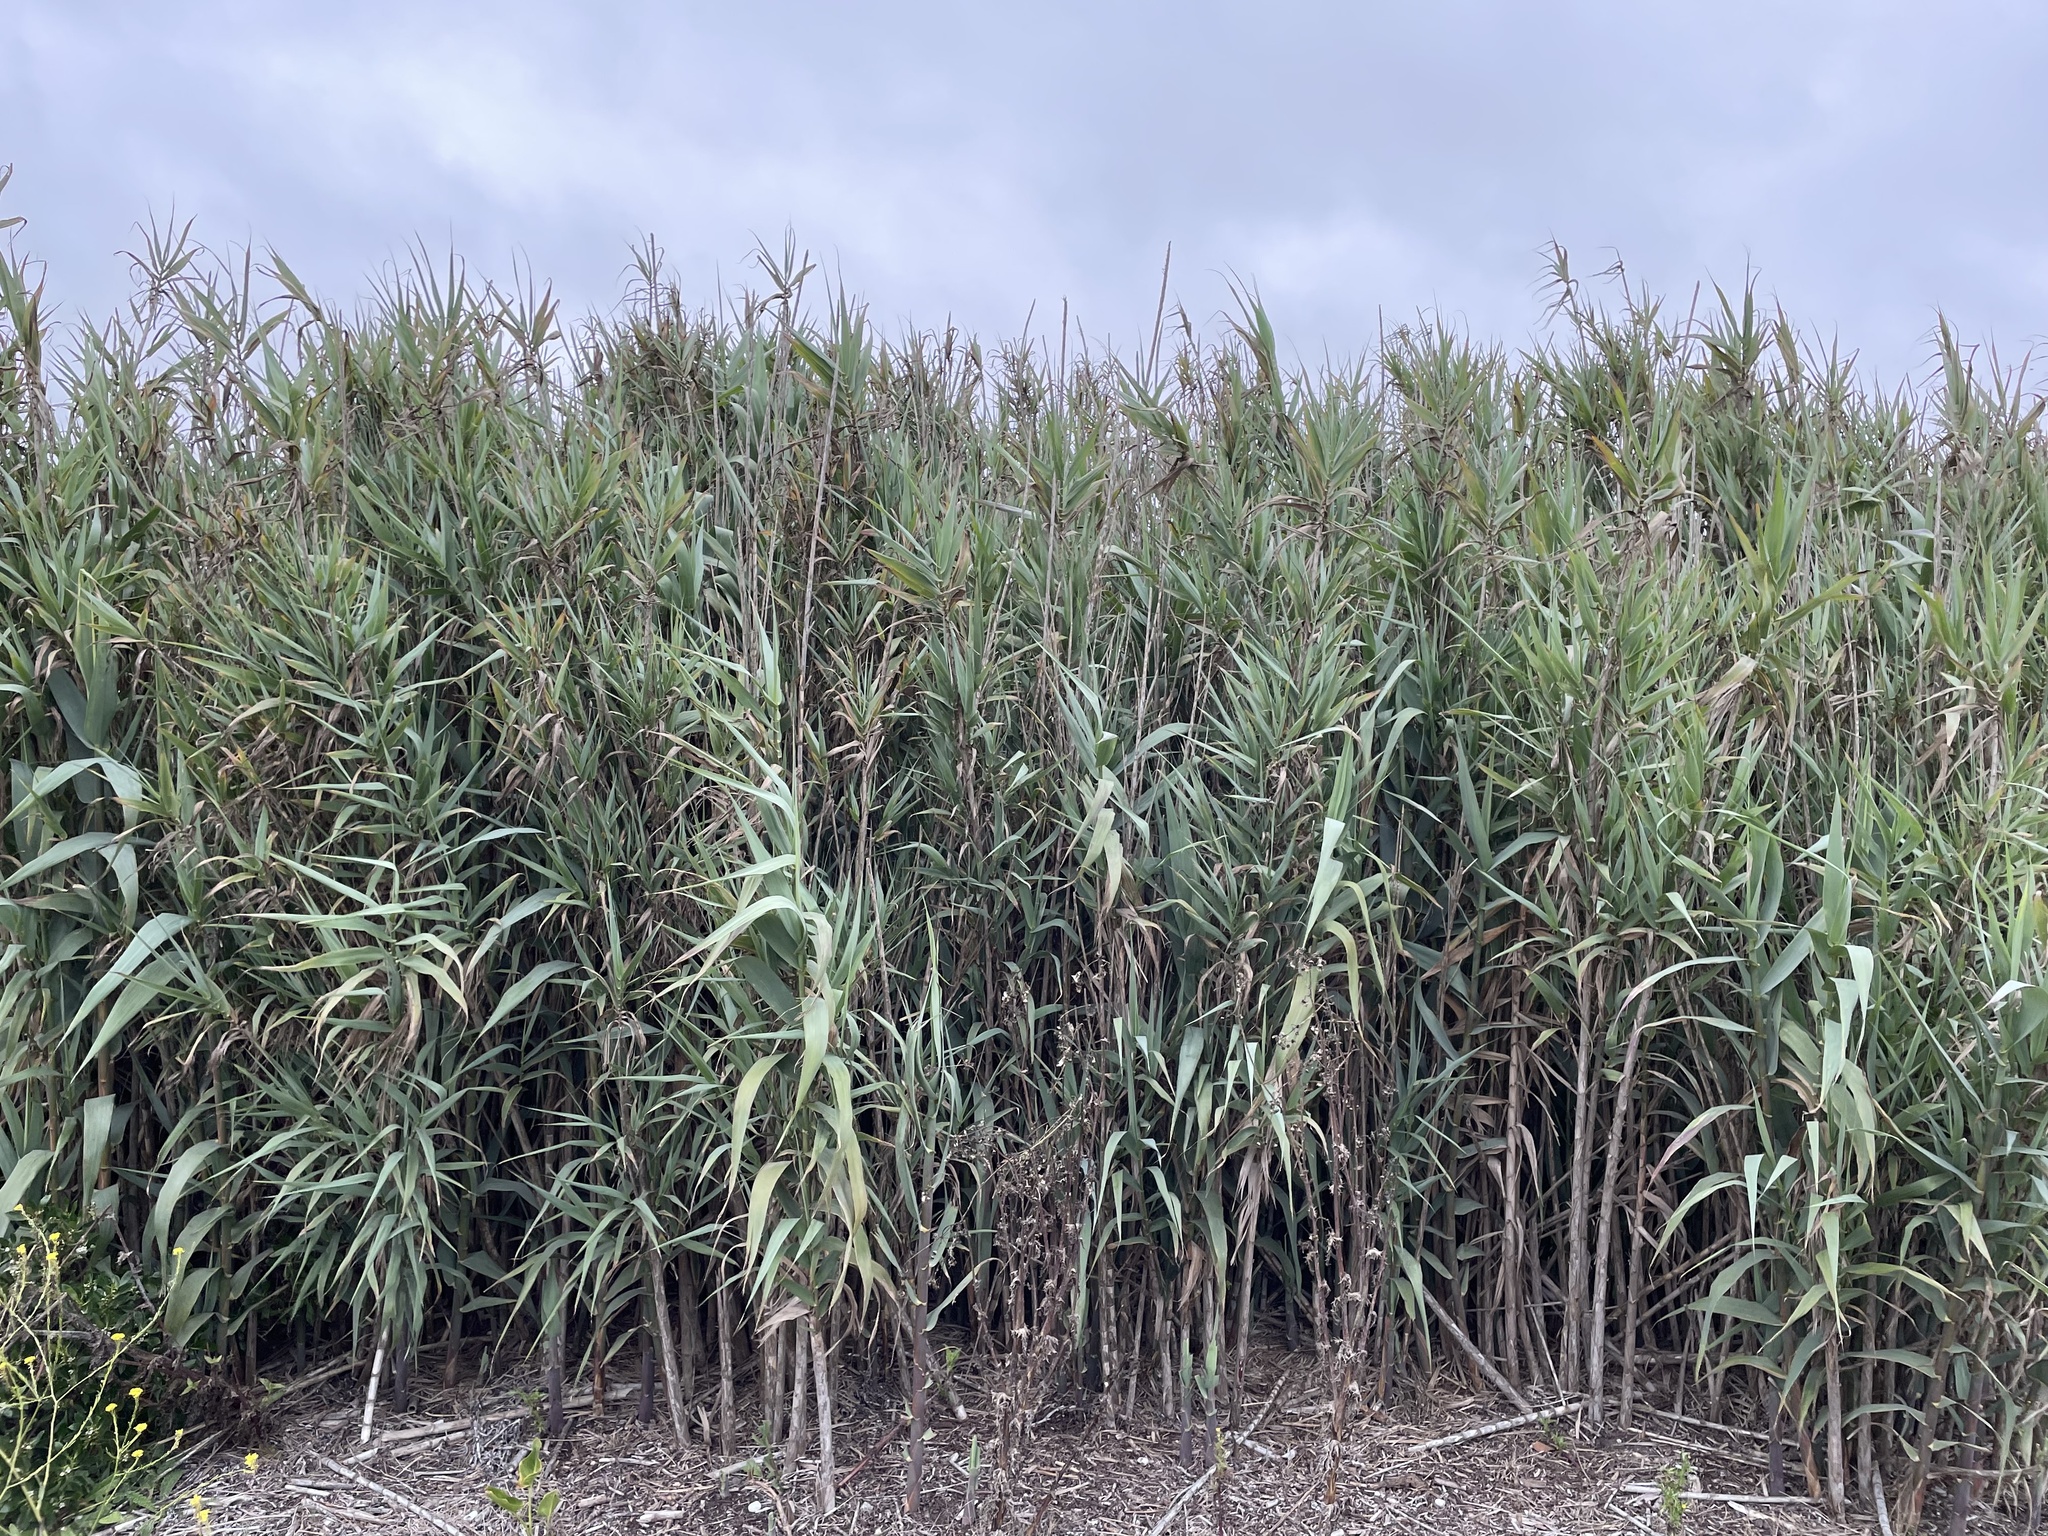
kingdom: Plantae
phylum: Tracheophyta
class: Liliopsida
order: Poales
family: Poaceae
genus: Arundo
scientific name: Arundo donax
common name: Giant reed
